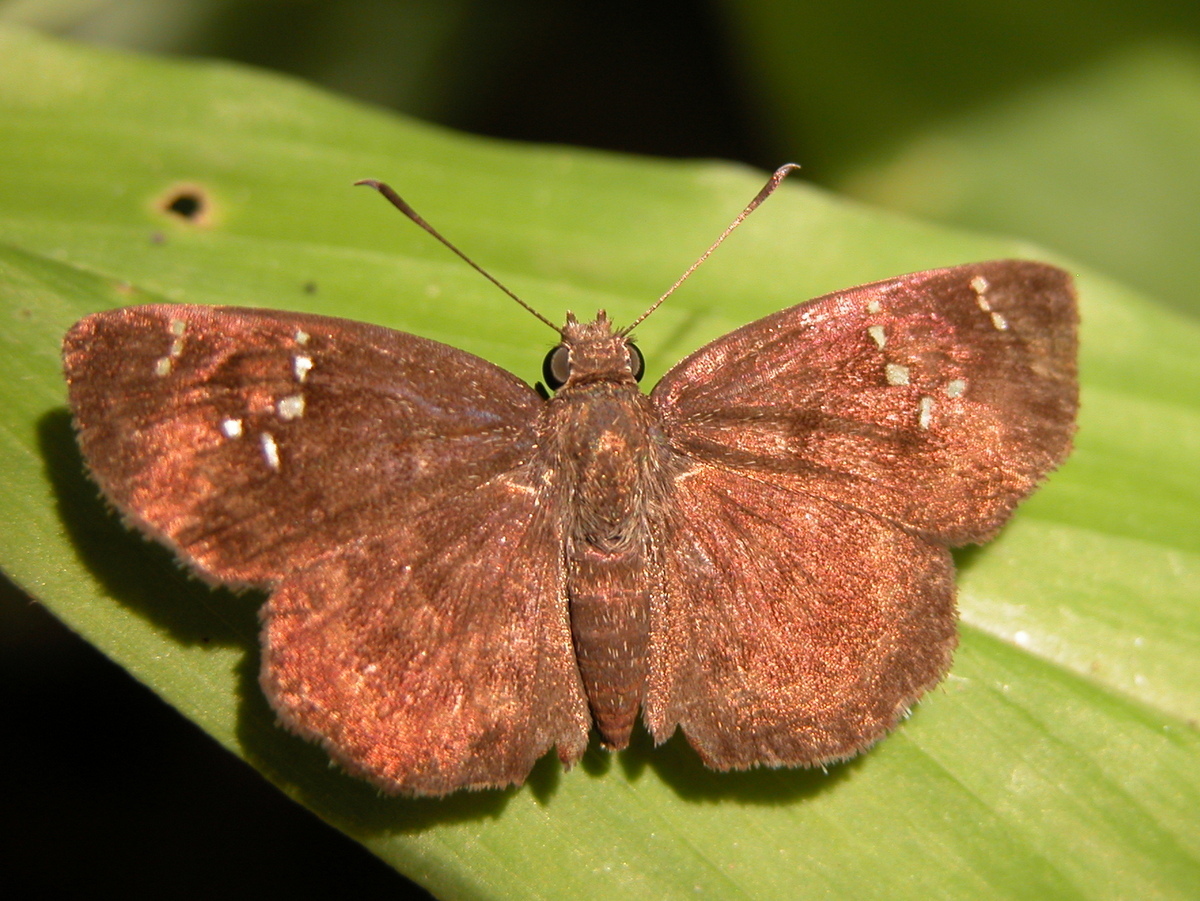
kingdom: Animalia
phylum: Arthropoda
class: Insecta
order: Lepidoptera
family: Hesperiidae
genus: Sarangesa
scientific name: Sarangesa dasahara
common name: Common small flat
